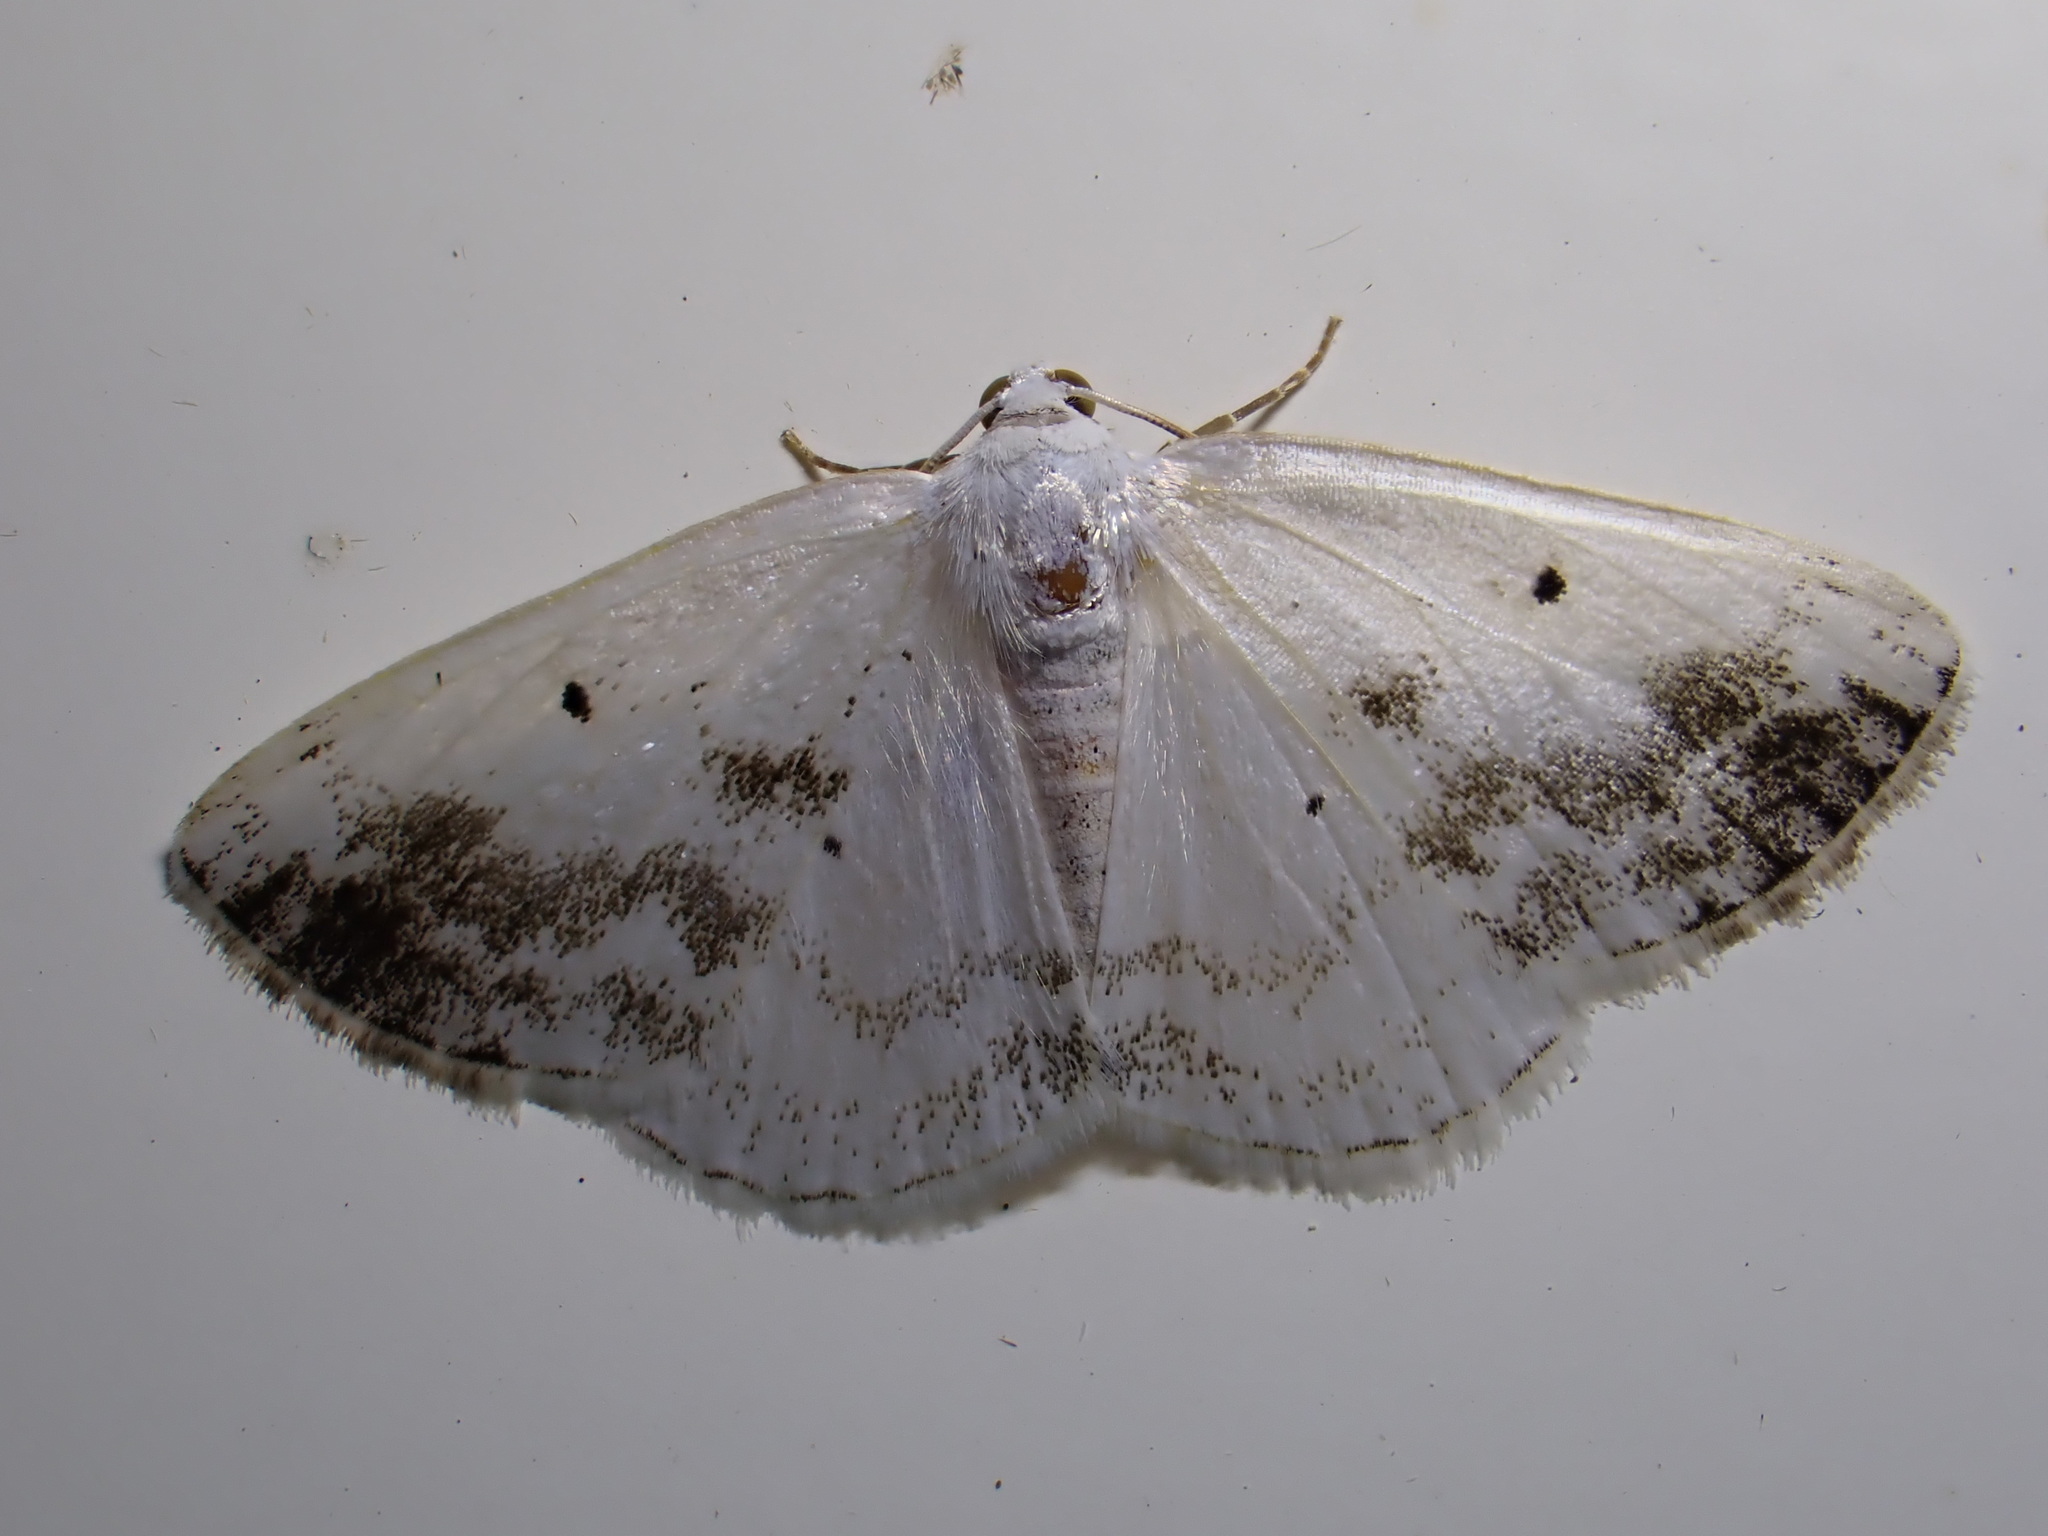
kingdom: Animalia
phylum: Arthropoda
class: Insecta
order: Lepidoptera
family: Geometridae
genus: Lomographa
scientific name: Lomographa temerata
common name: Clouded silver
